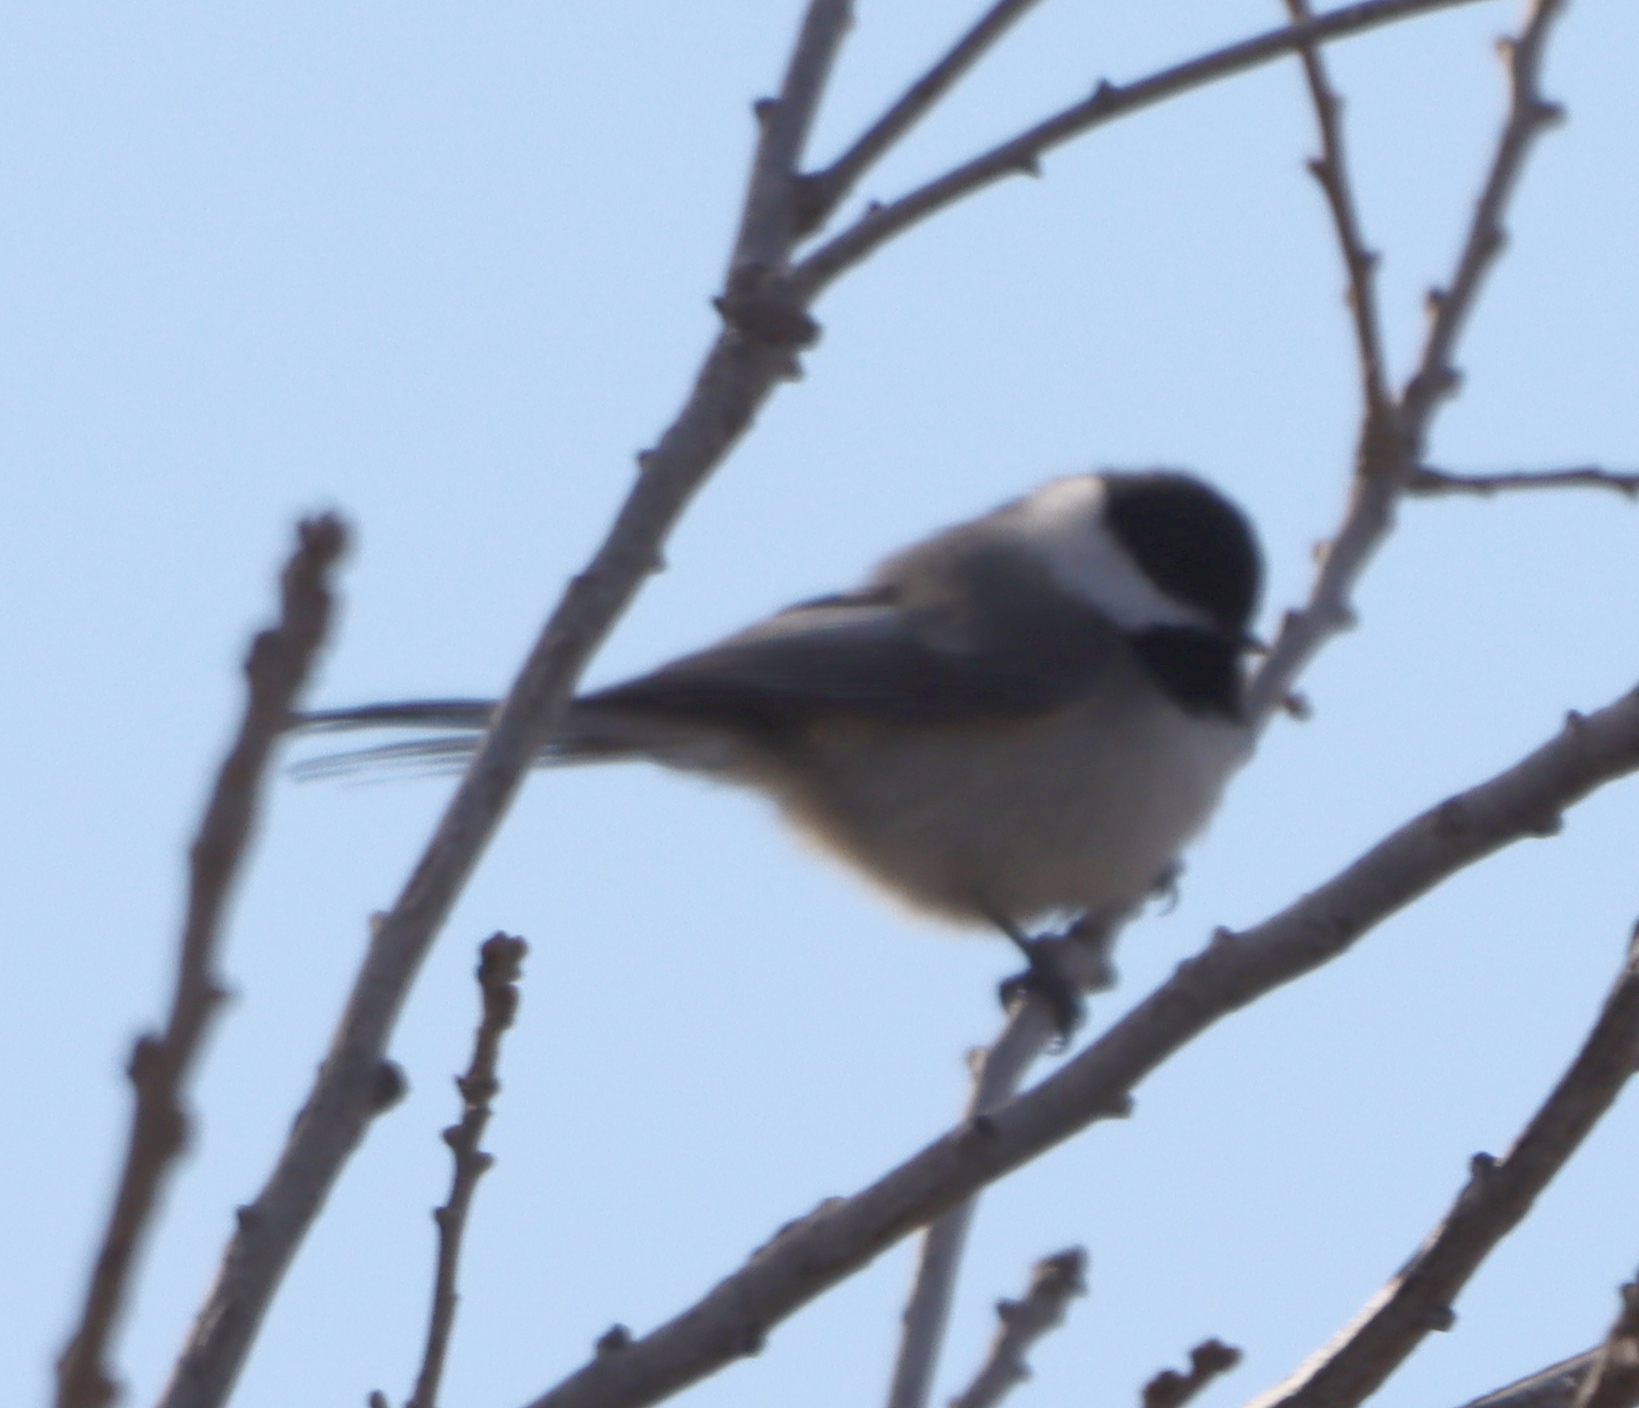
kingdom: Animalia
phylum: Chordata
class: Aves
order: Passeriformes
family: Paridae
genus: Poecile
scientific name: Poecile atricapillus
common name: Black-capped chickadee
